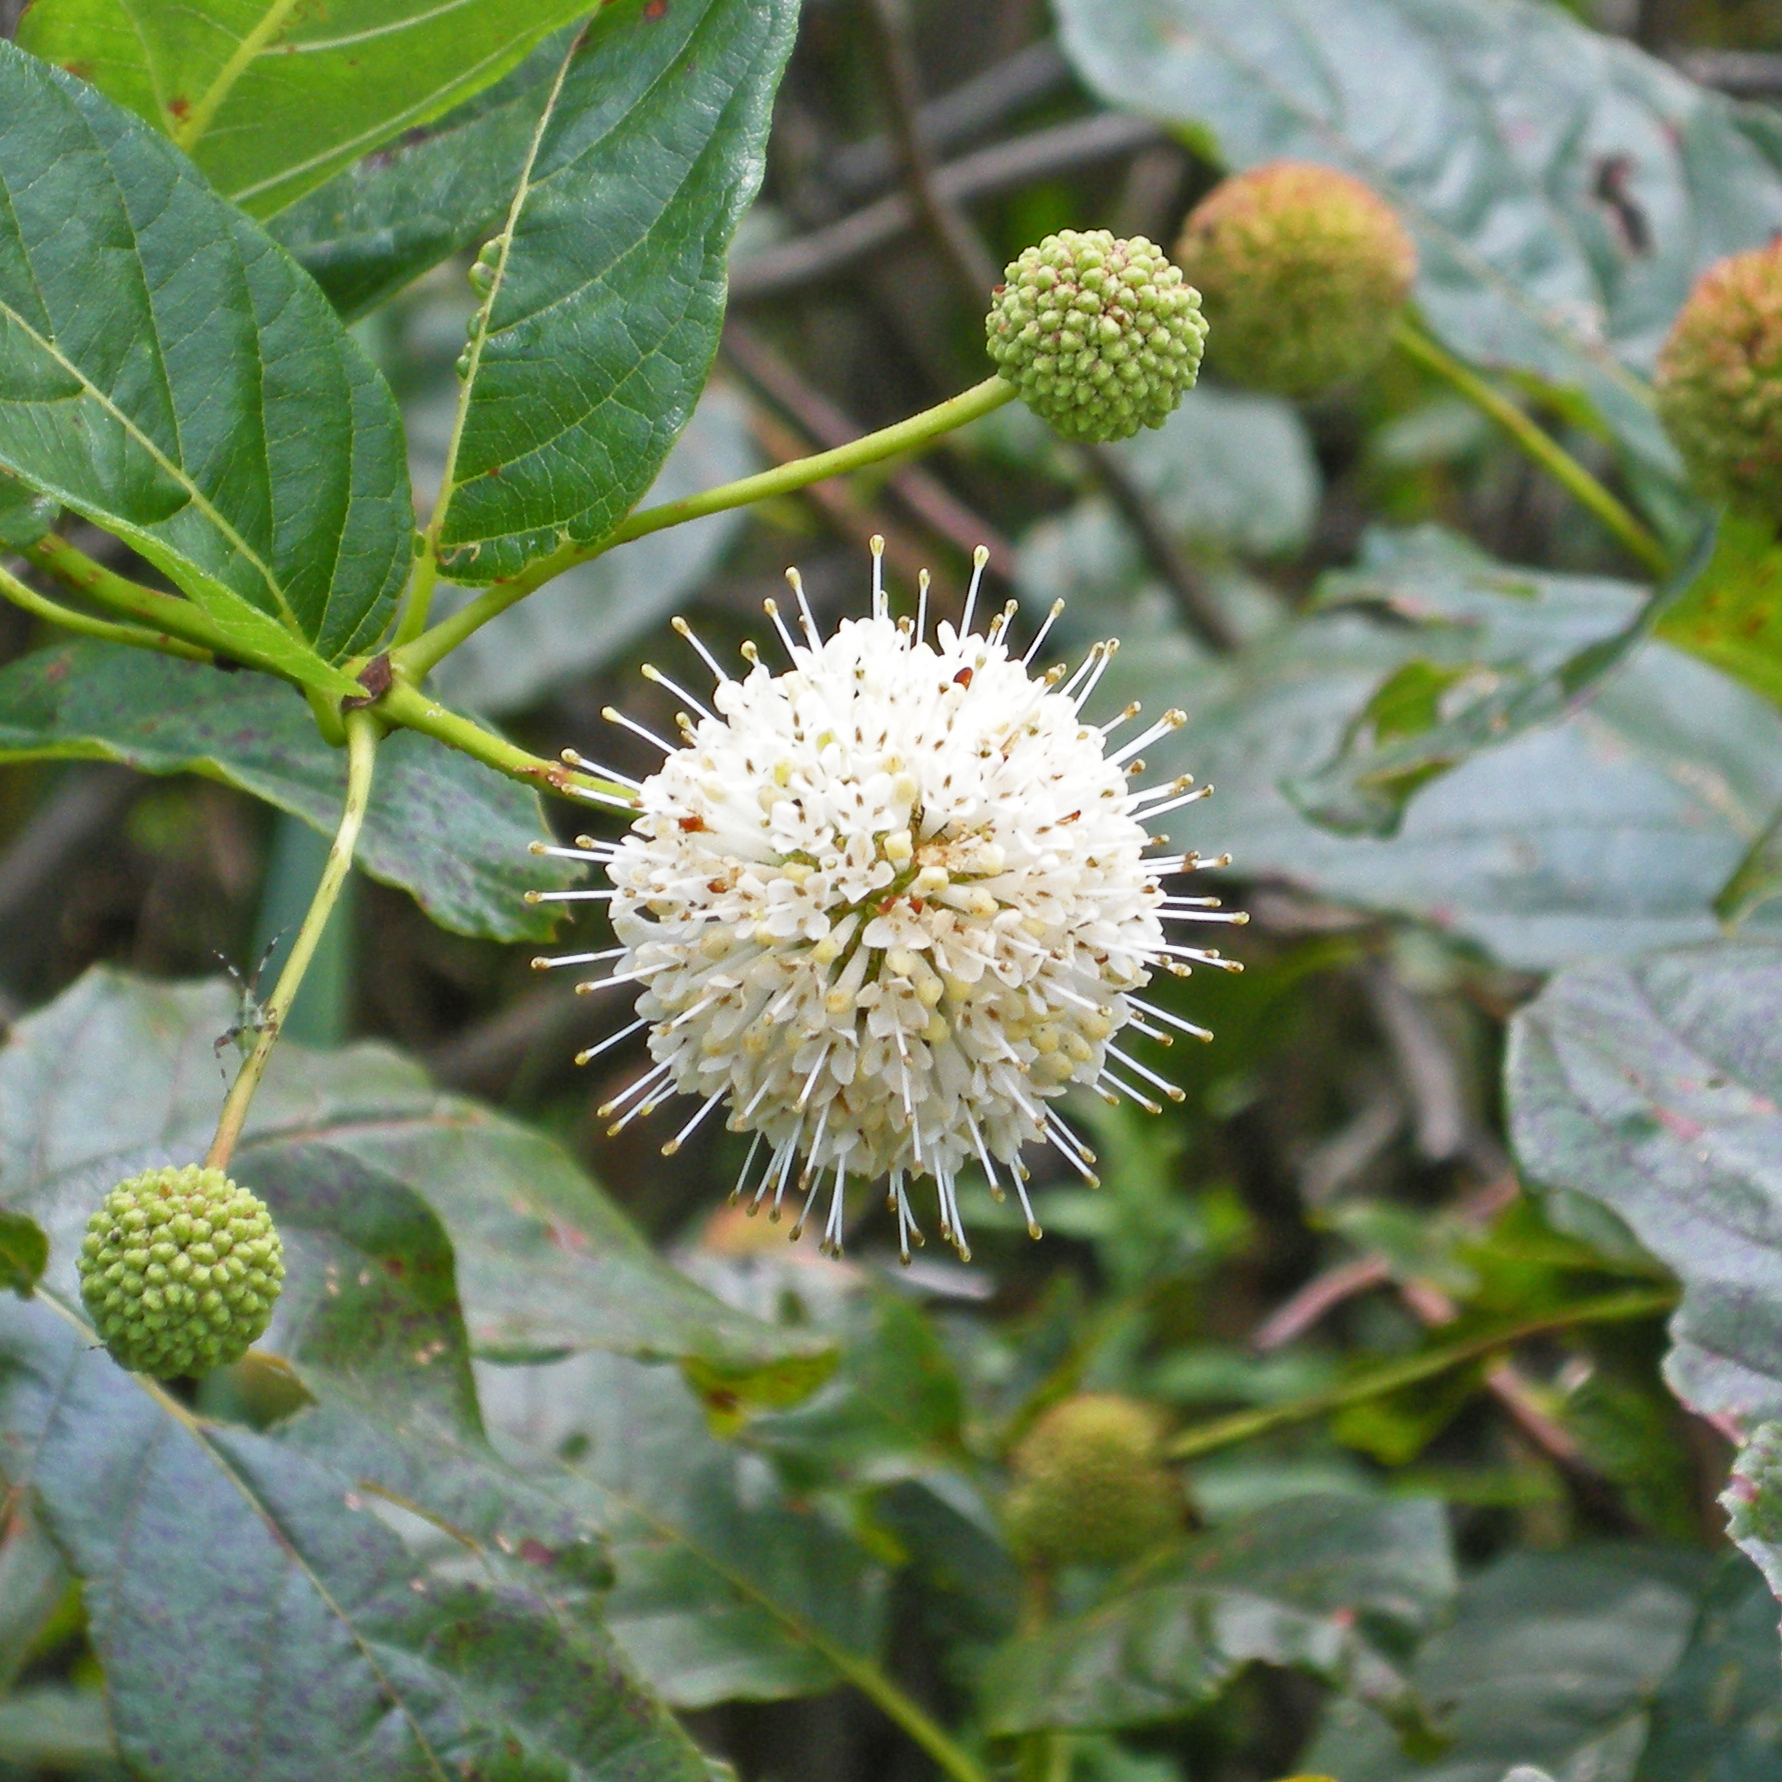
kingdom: Plantae
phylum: Tracheophyta
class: Magnoliopsida
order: Gentianales
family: Rubiaceae
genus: Cephalanthus
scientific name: Cephalanthus occidentalis
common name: Button-willow
